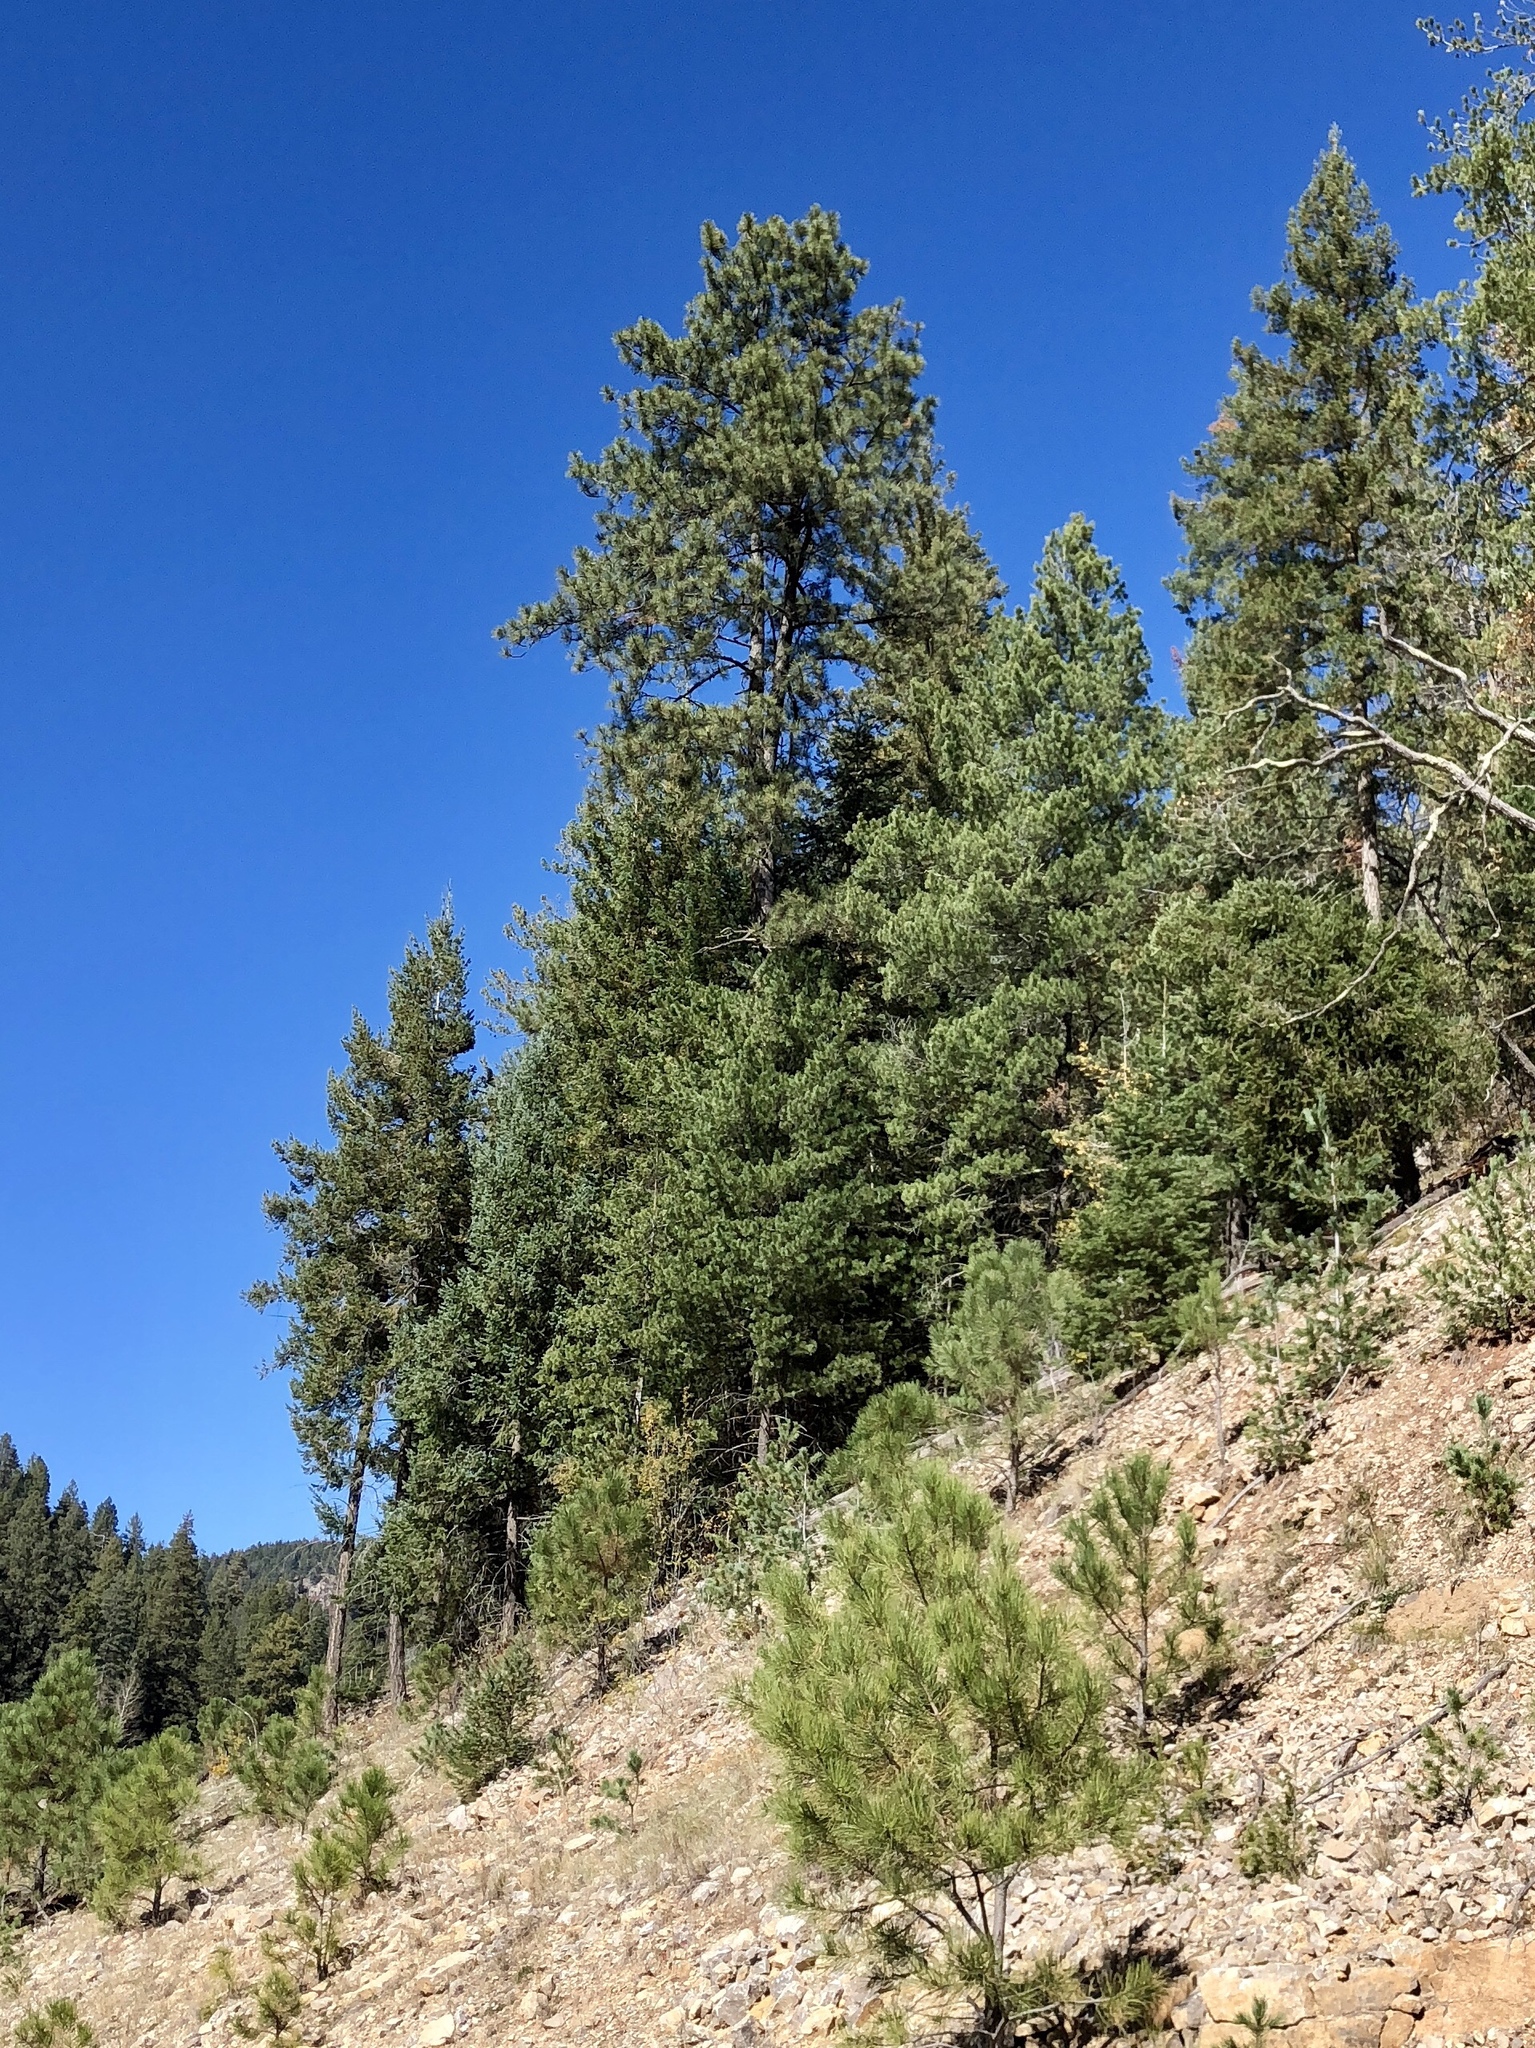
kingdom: Plantae
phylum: Tracheophyta
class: Pinopsida
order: Pinales
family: Pinaceae
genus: Pinus
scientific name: Pinus ponderosa
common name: Western yellow-pine
